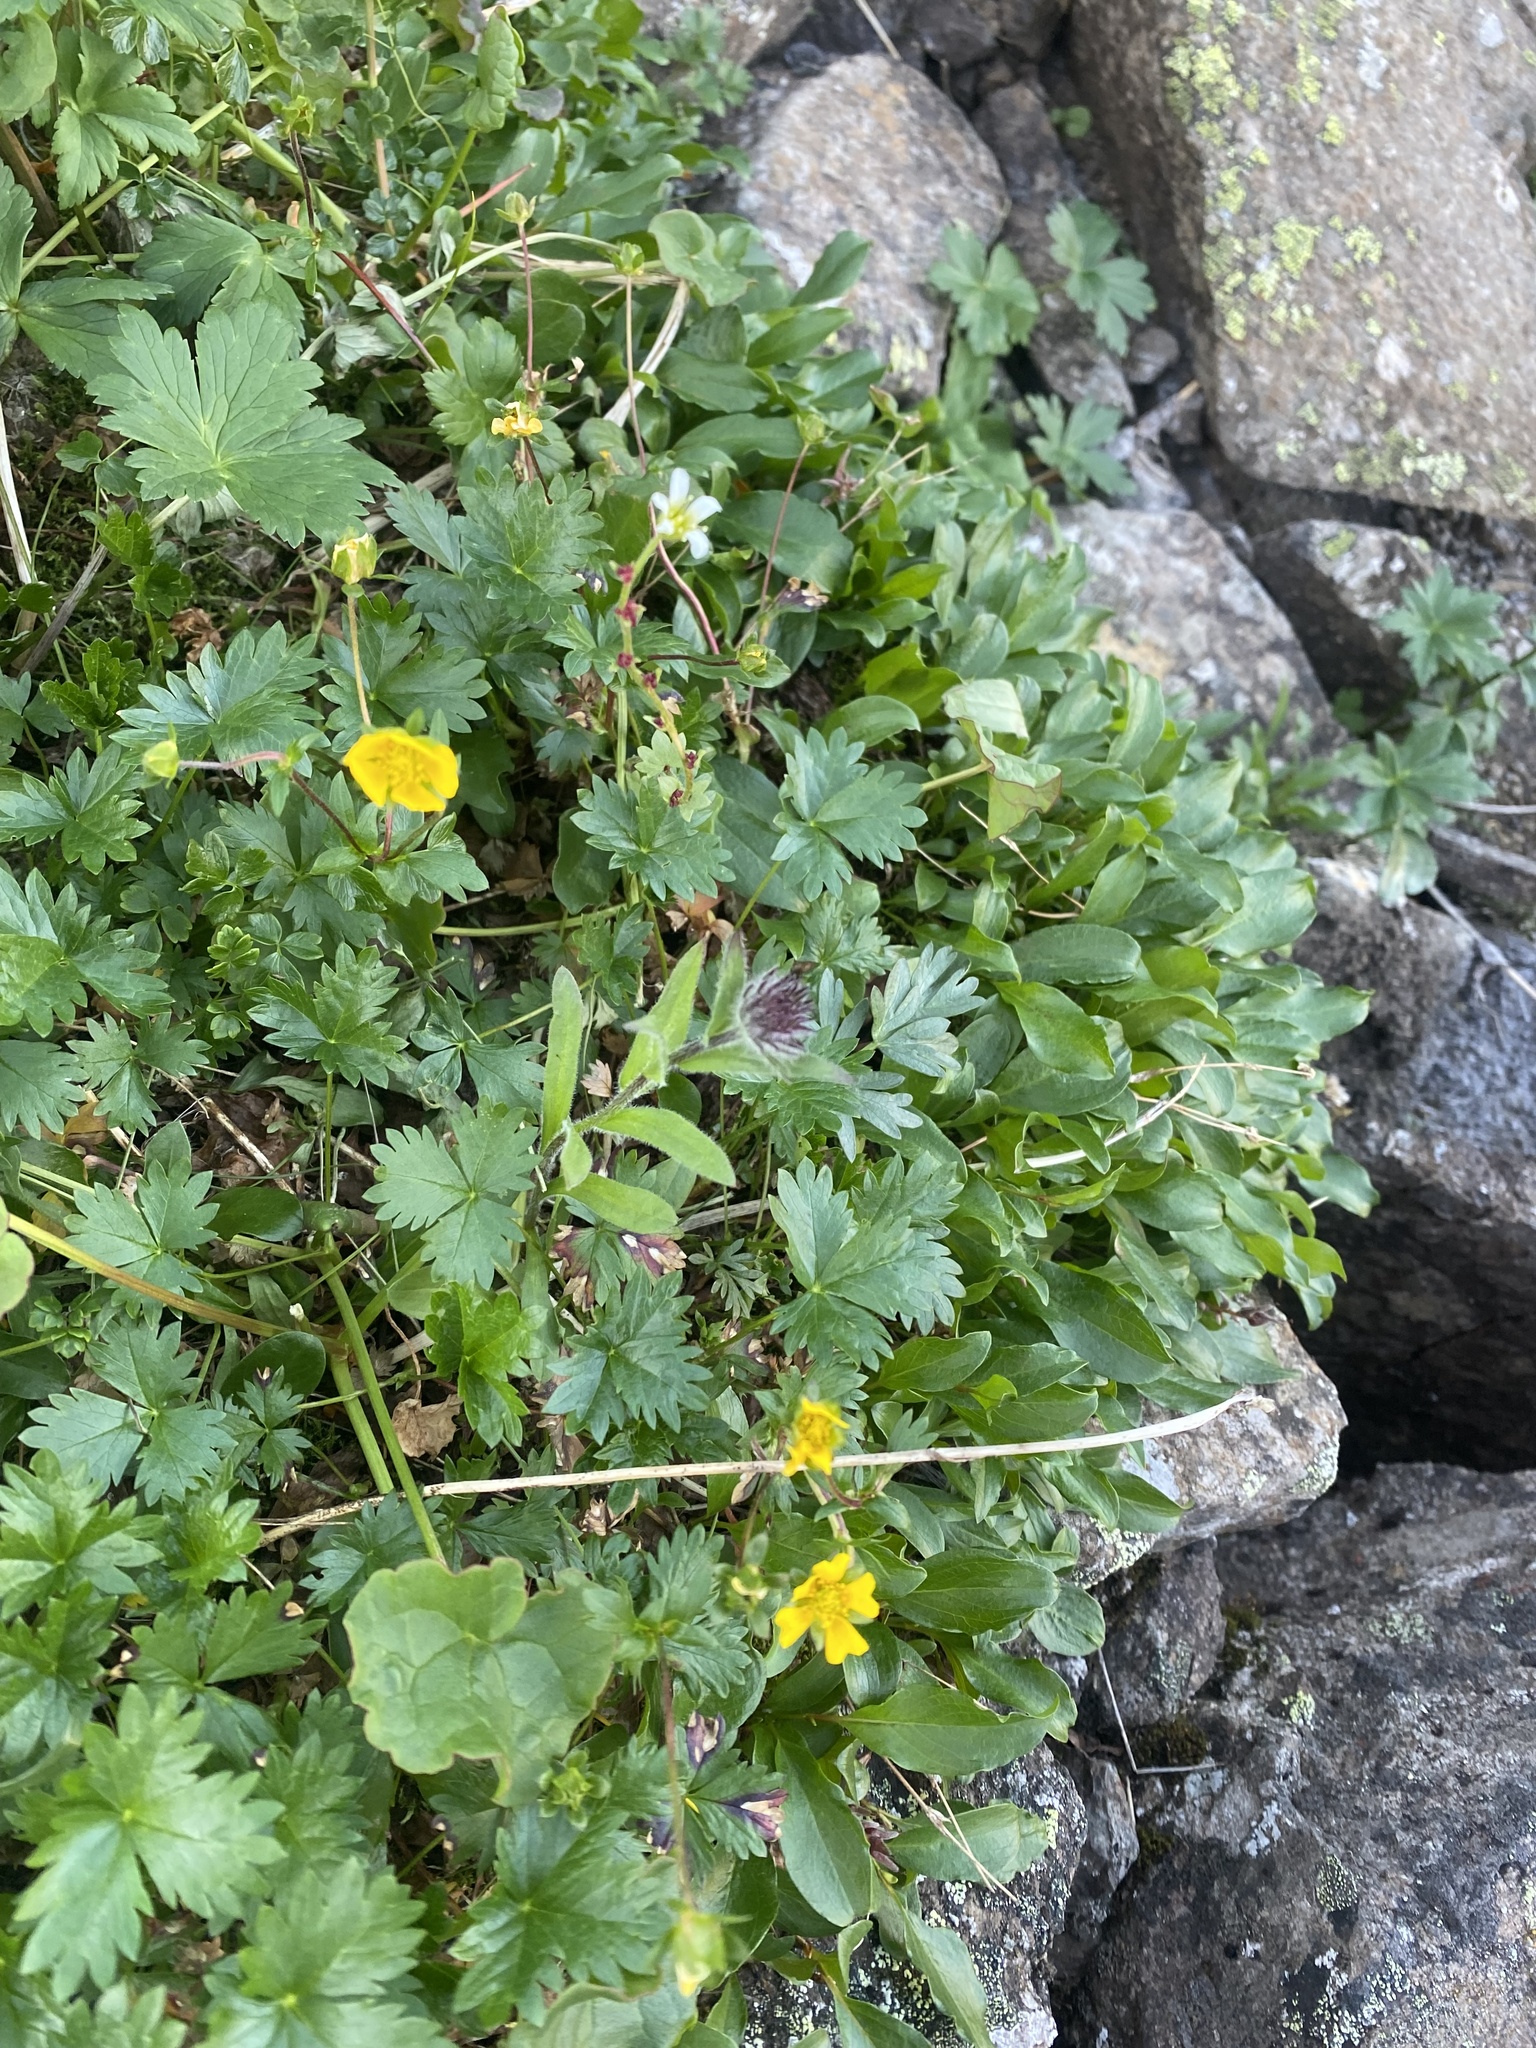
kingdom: Plantae
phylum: Tracheophyta
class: Magnoliopsida
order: Asterales
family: Asteraceae
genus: Erigeron
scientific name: Erigeron eriocephalus
